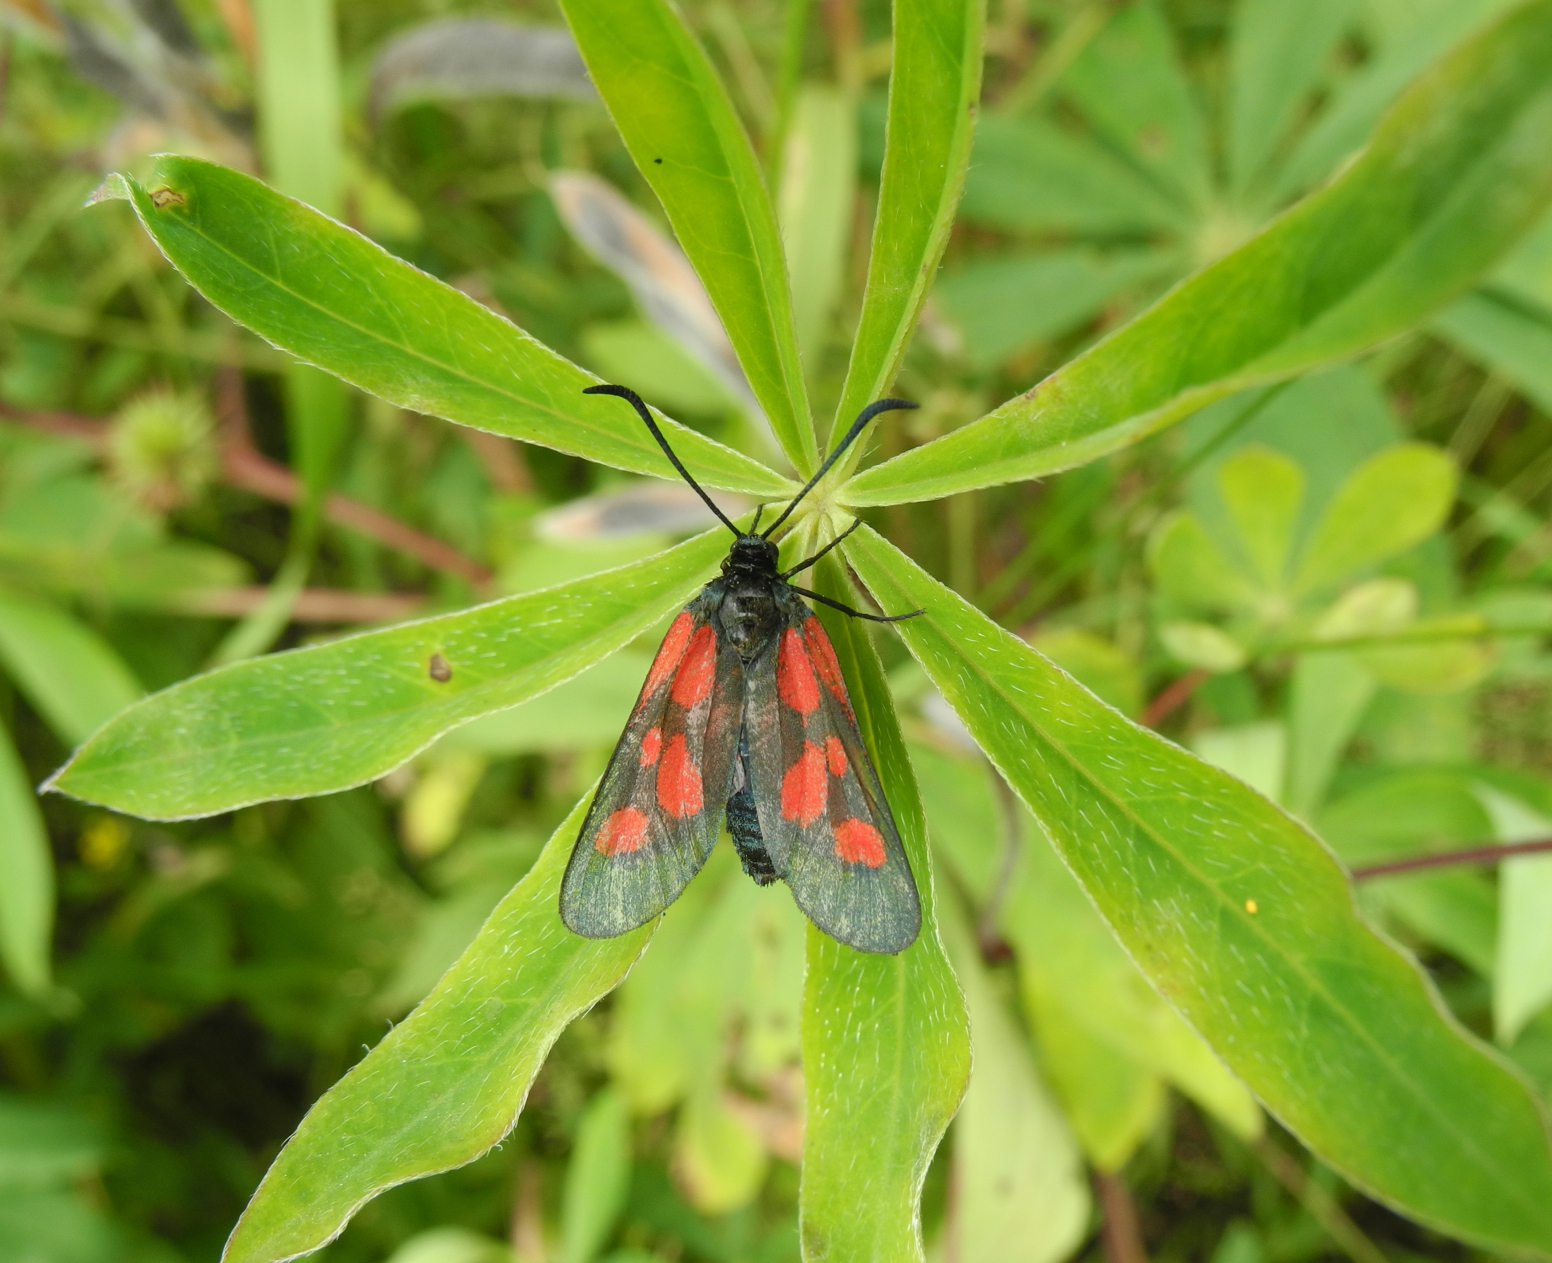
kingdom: Animalia
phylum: Arthropoda
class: Insecta
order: Lepidoptera
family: Zygaenidae
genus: Zygaena
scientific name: Zygaena viciae
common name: New forest burnet
